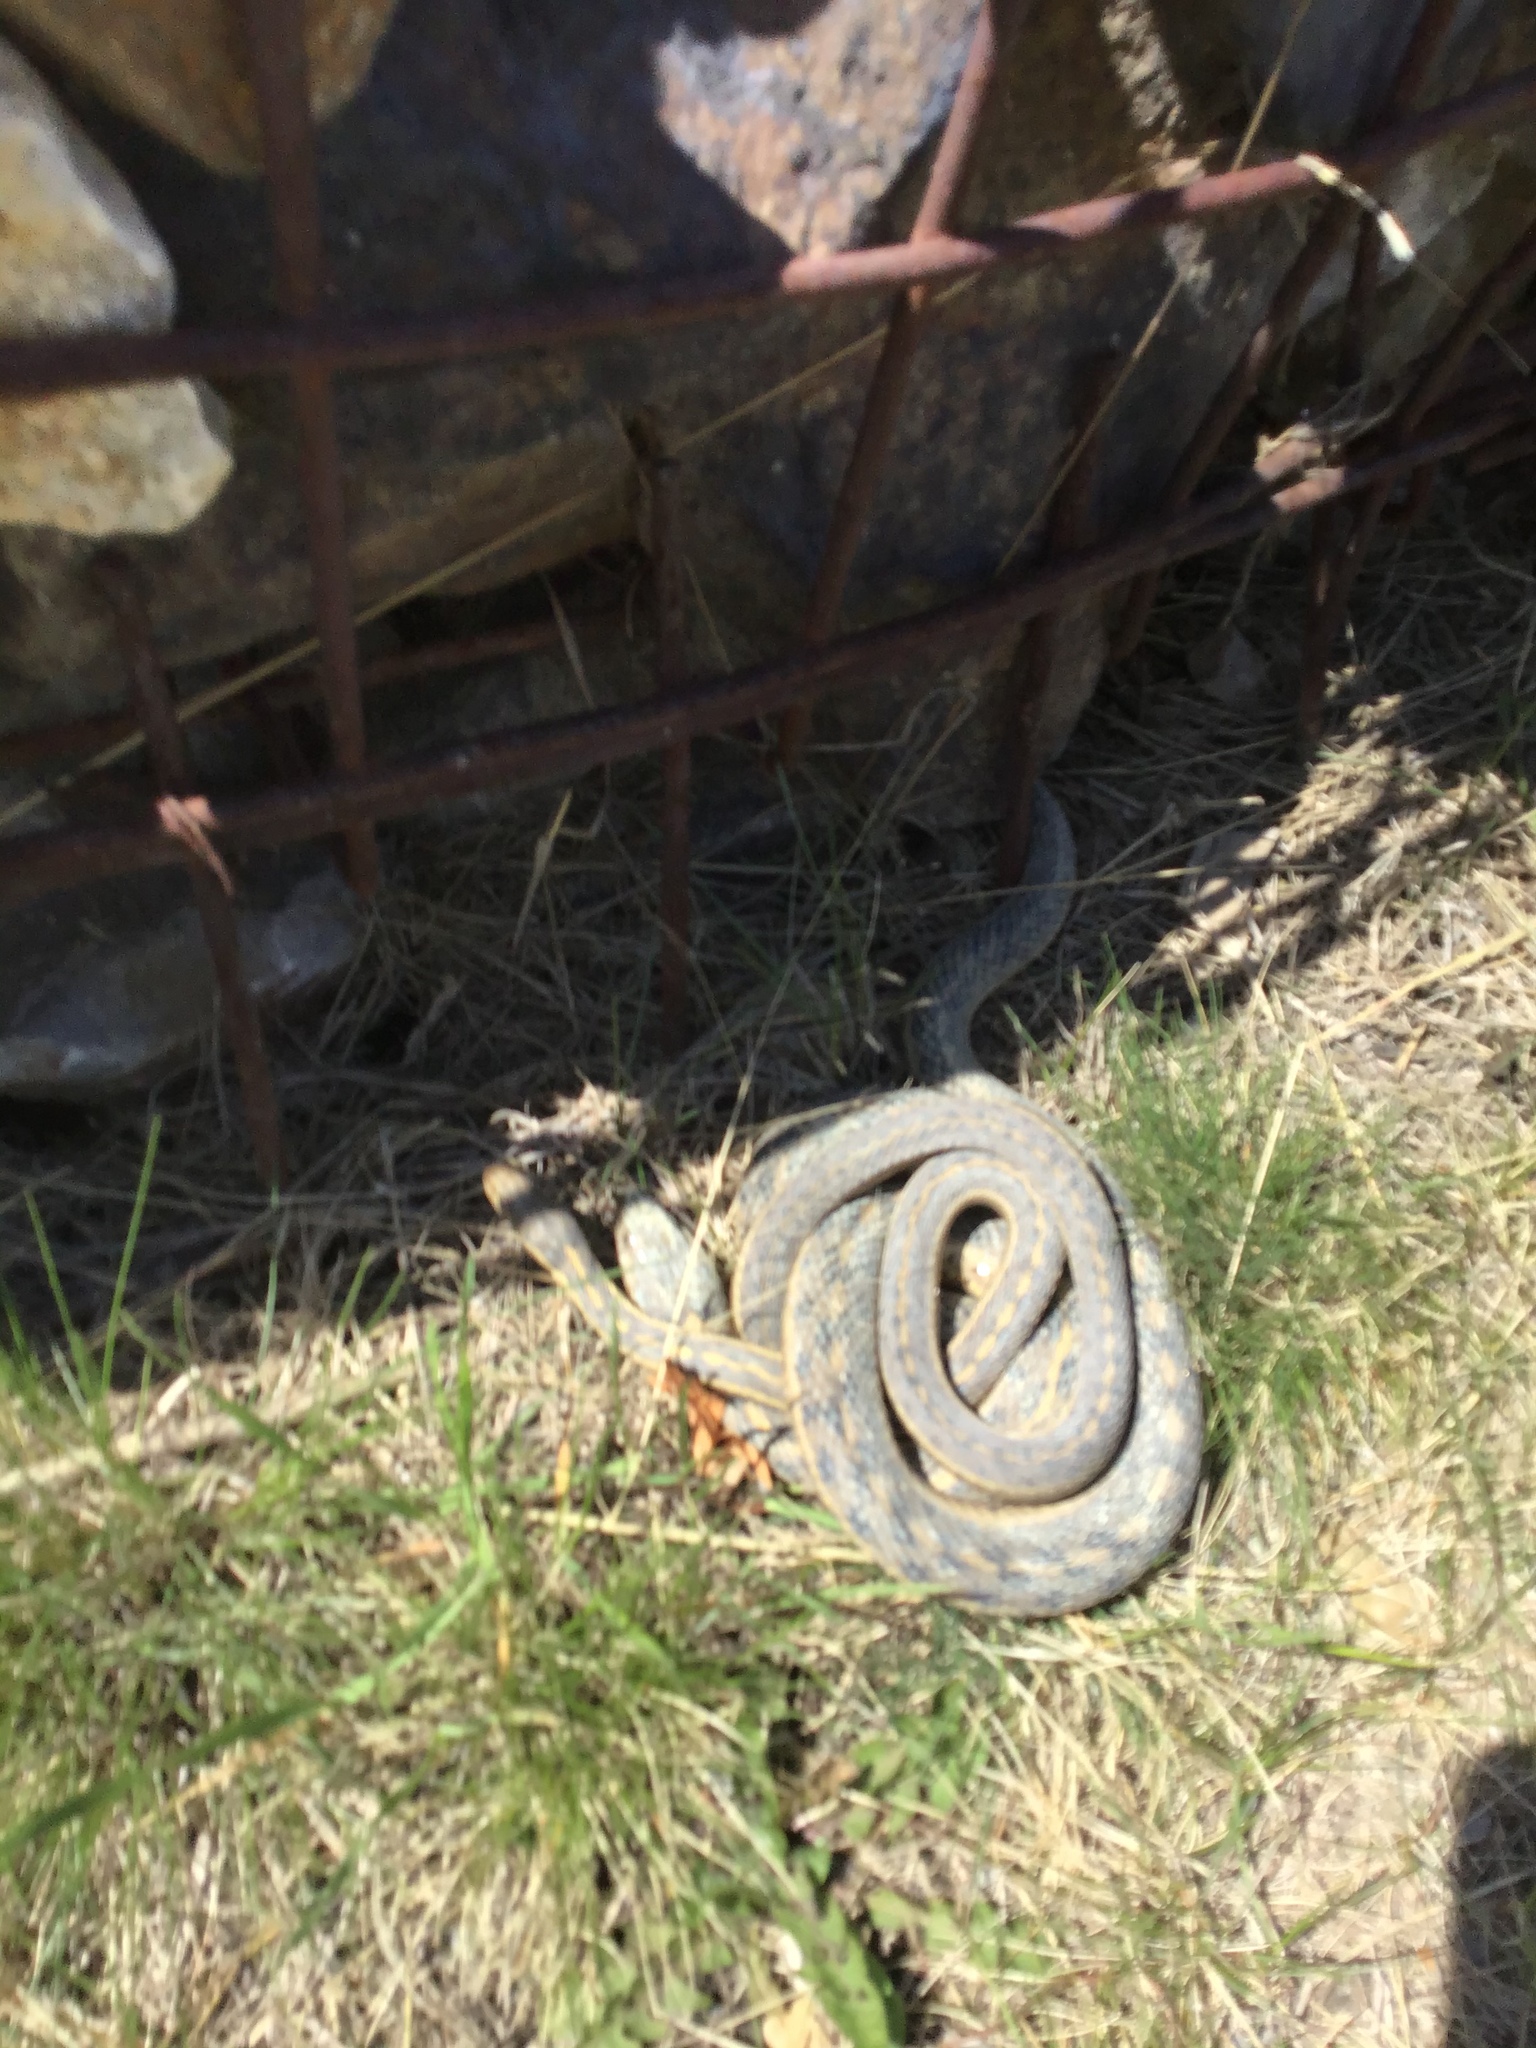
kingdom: Animalia
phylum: Chordata
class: Squamata
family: Colubridae
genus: Thamnophis
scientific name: Thamnophis elegans
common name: Western terrestrial garter snake
